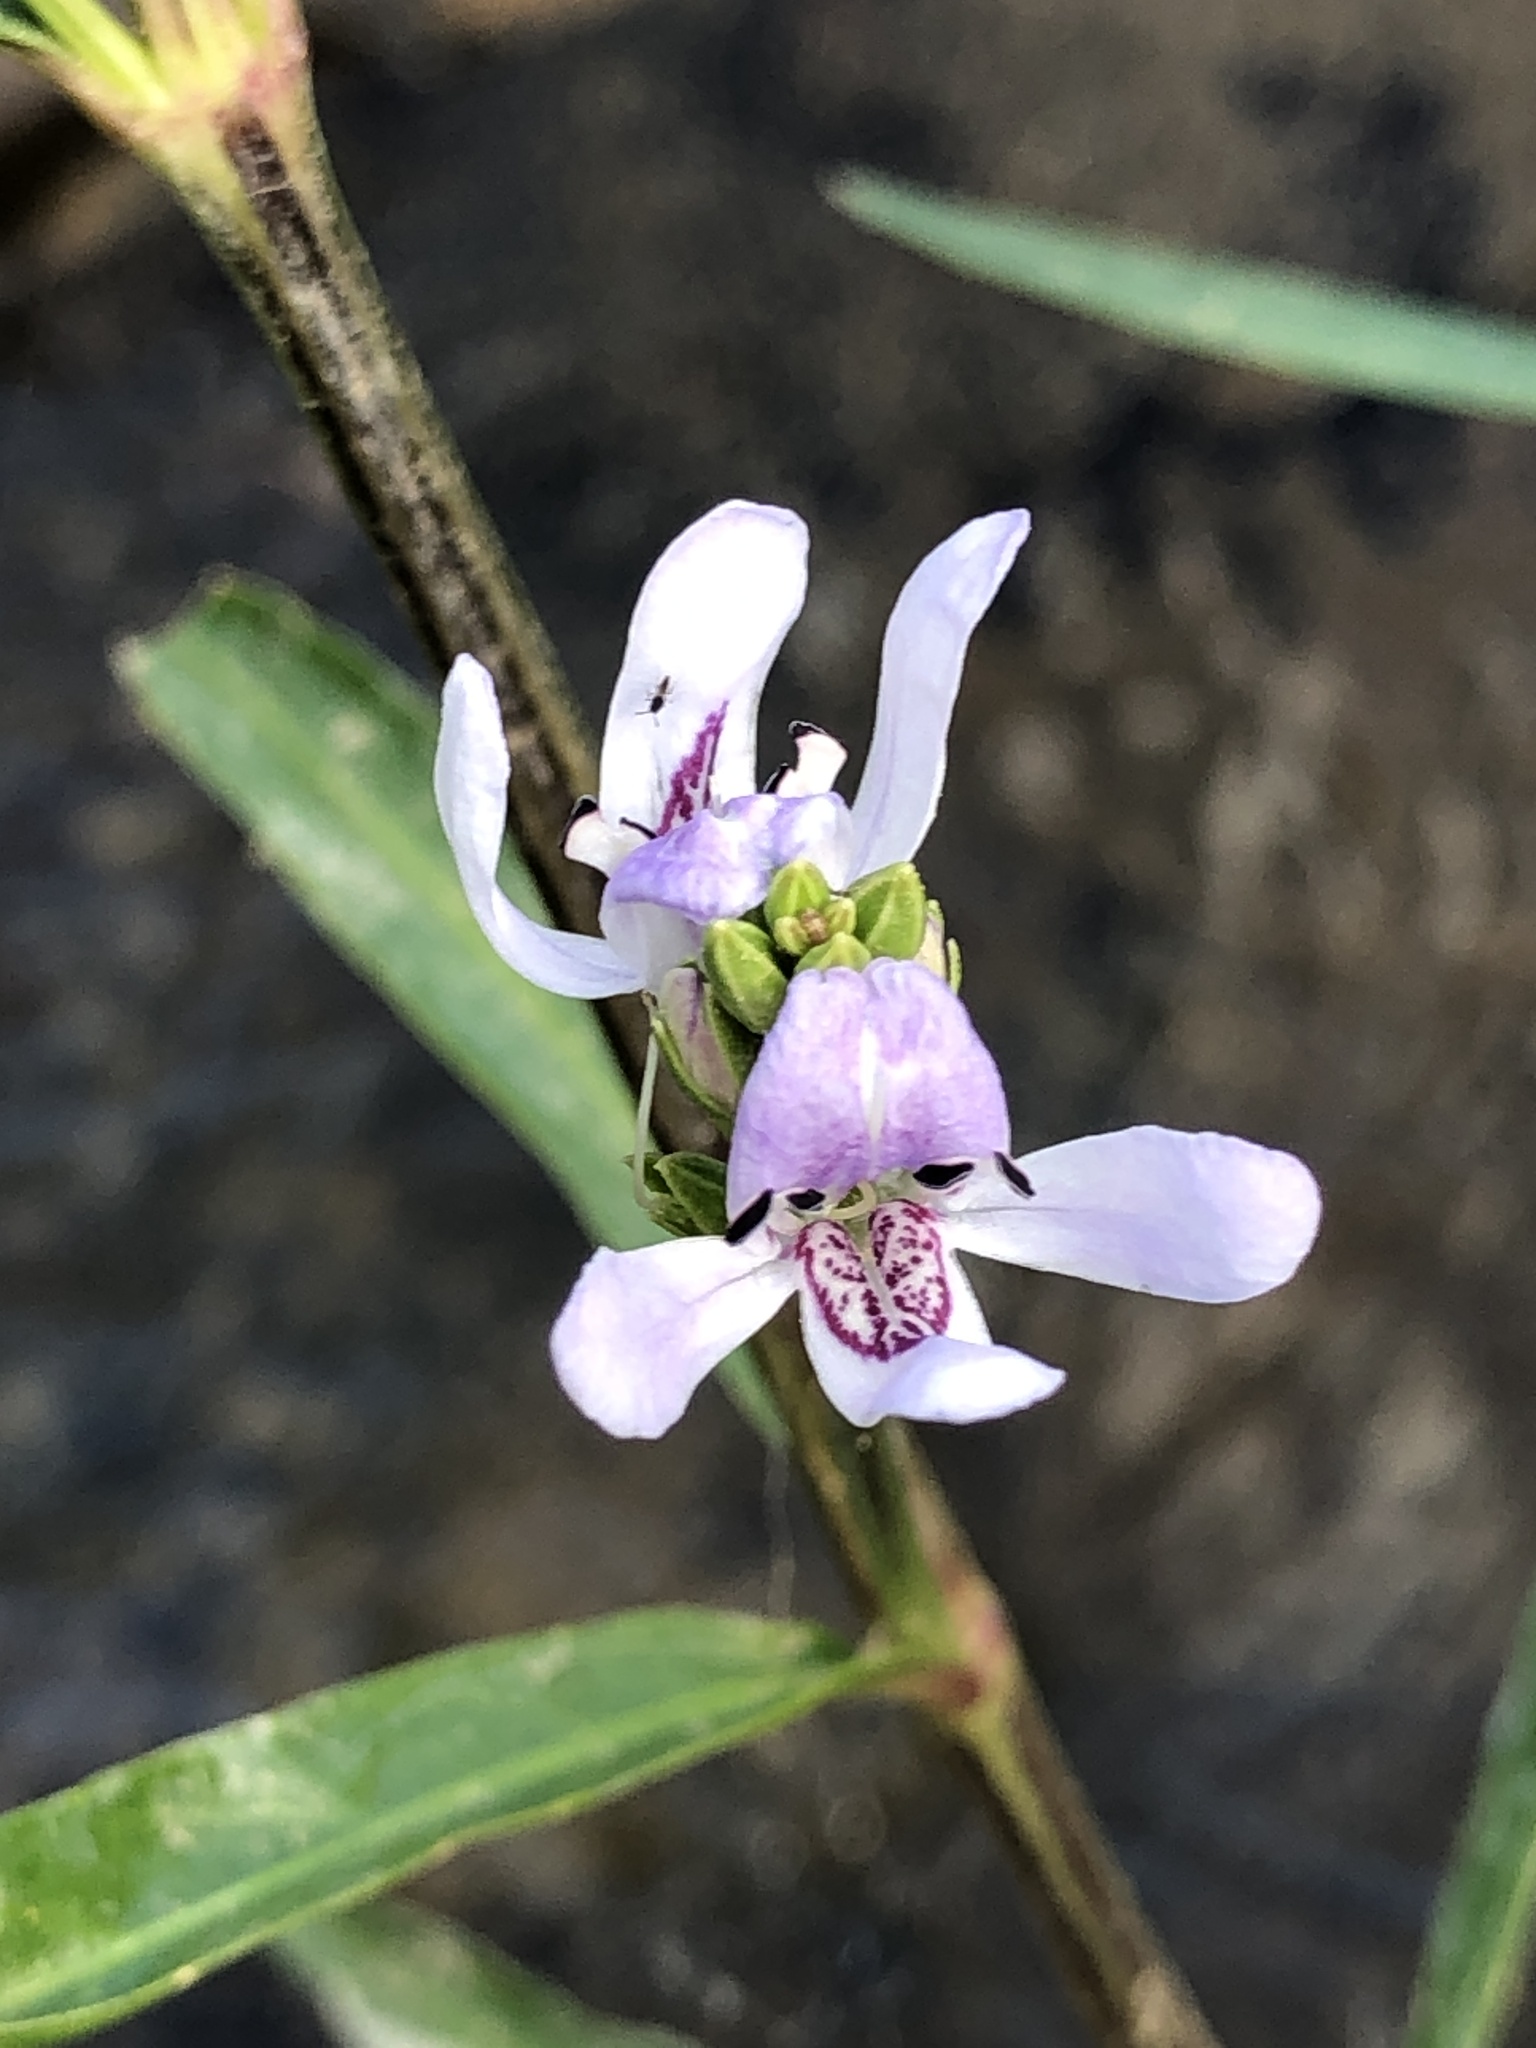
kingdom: Plantae
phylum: Tracheophyta
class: Magnoliopsida
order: Lamiales
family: Acanthaceae
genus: Dianthera
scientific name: Dianthera americana
